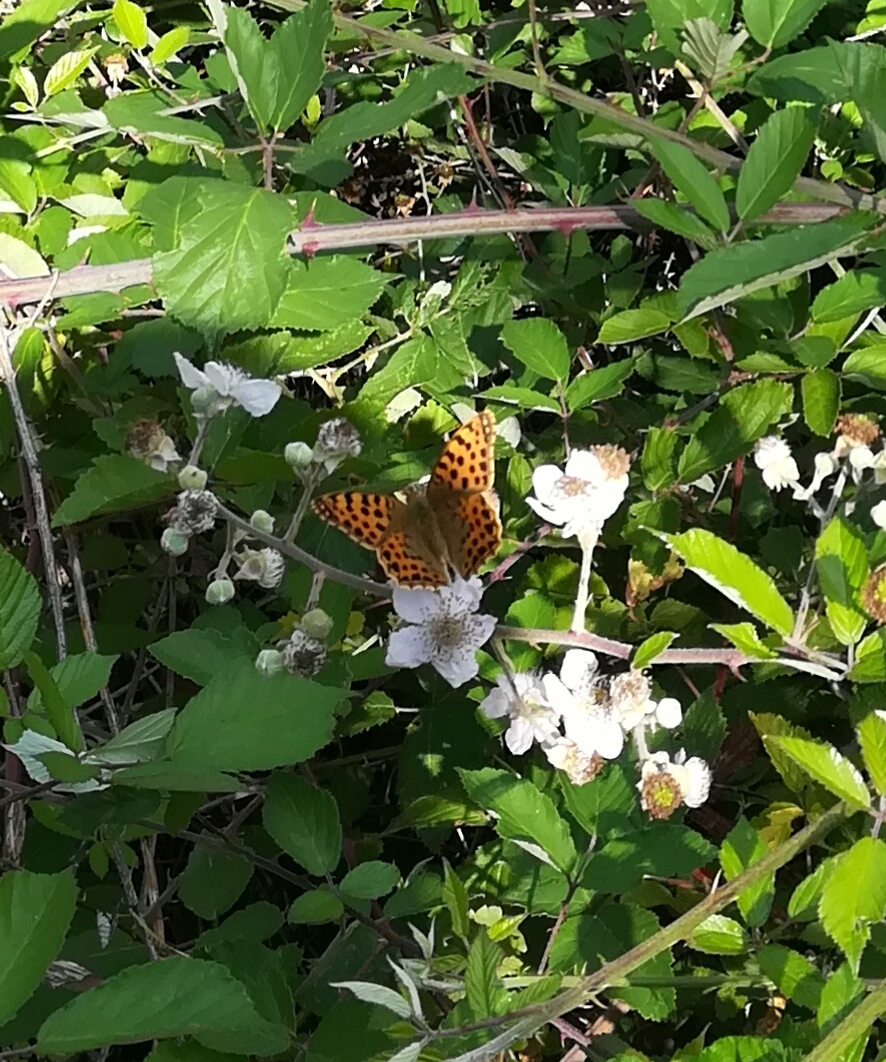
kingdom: Animalia
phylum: Arthropoda
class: Insecta
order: Lepidoptera
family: Nymphalidae
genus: Issoria
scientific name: Issoria lathonia
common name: Queen of spain fritillary
